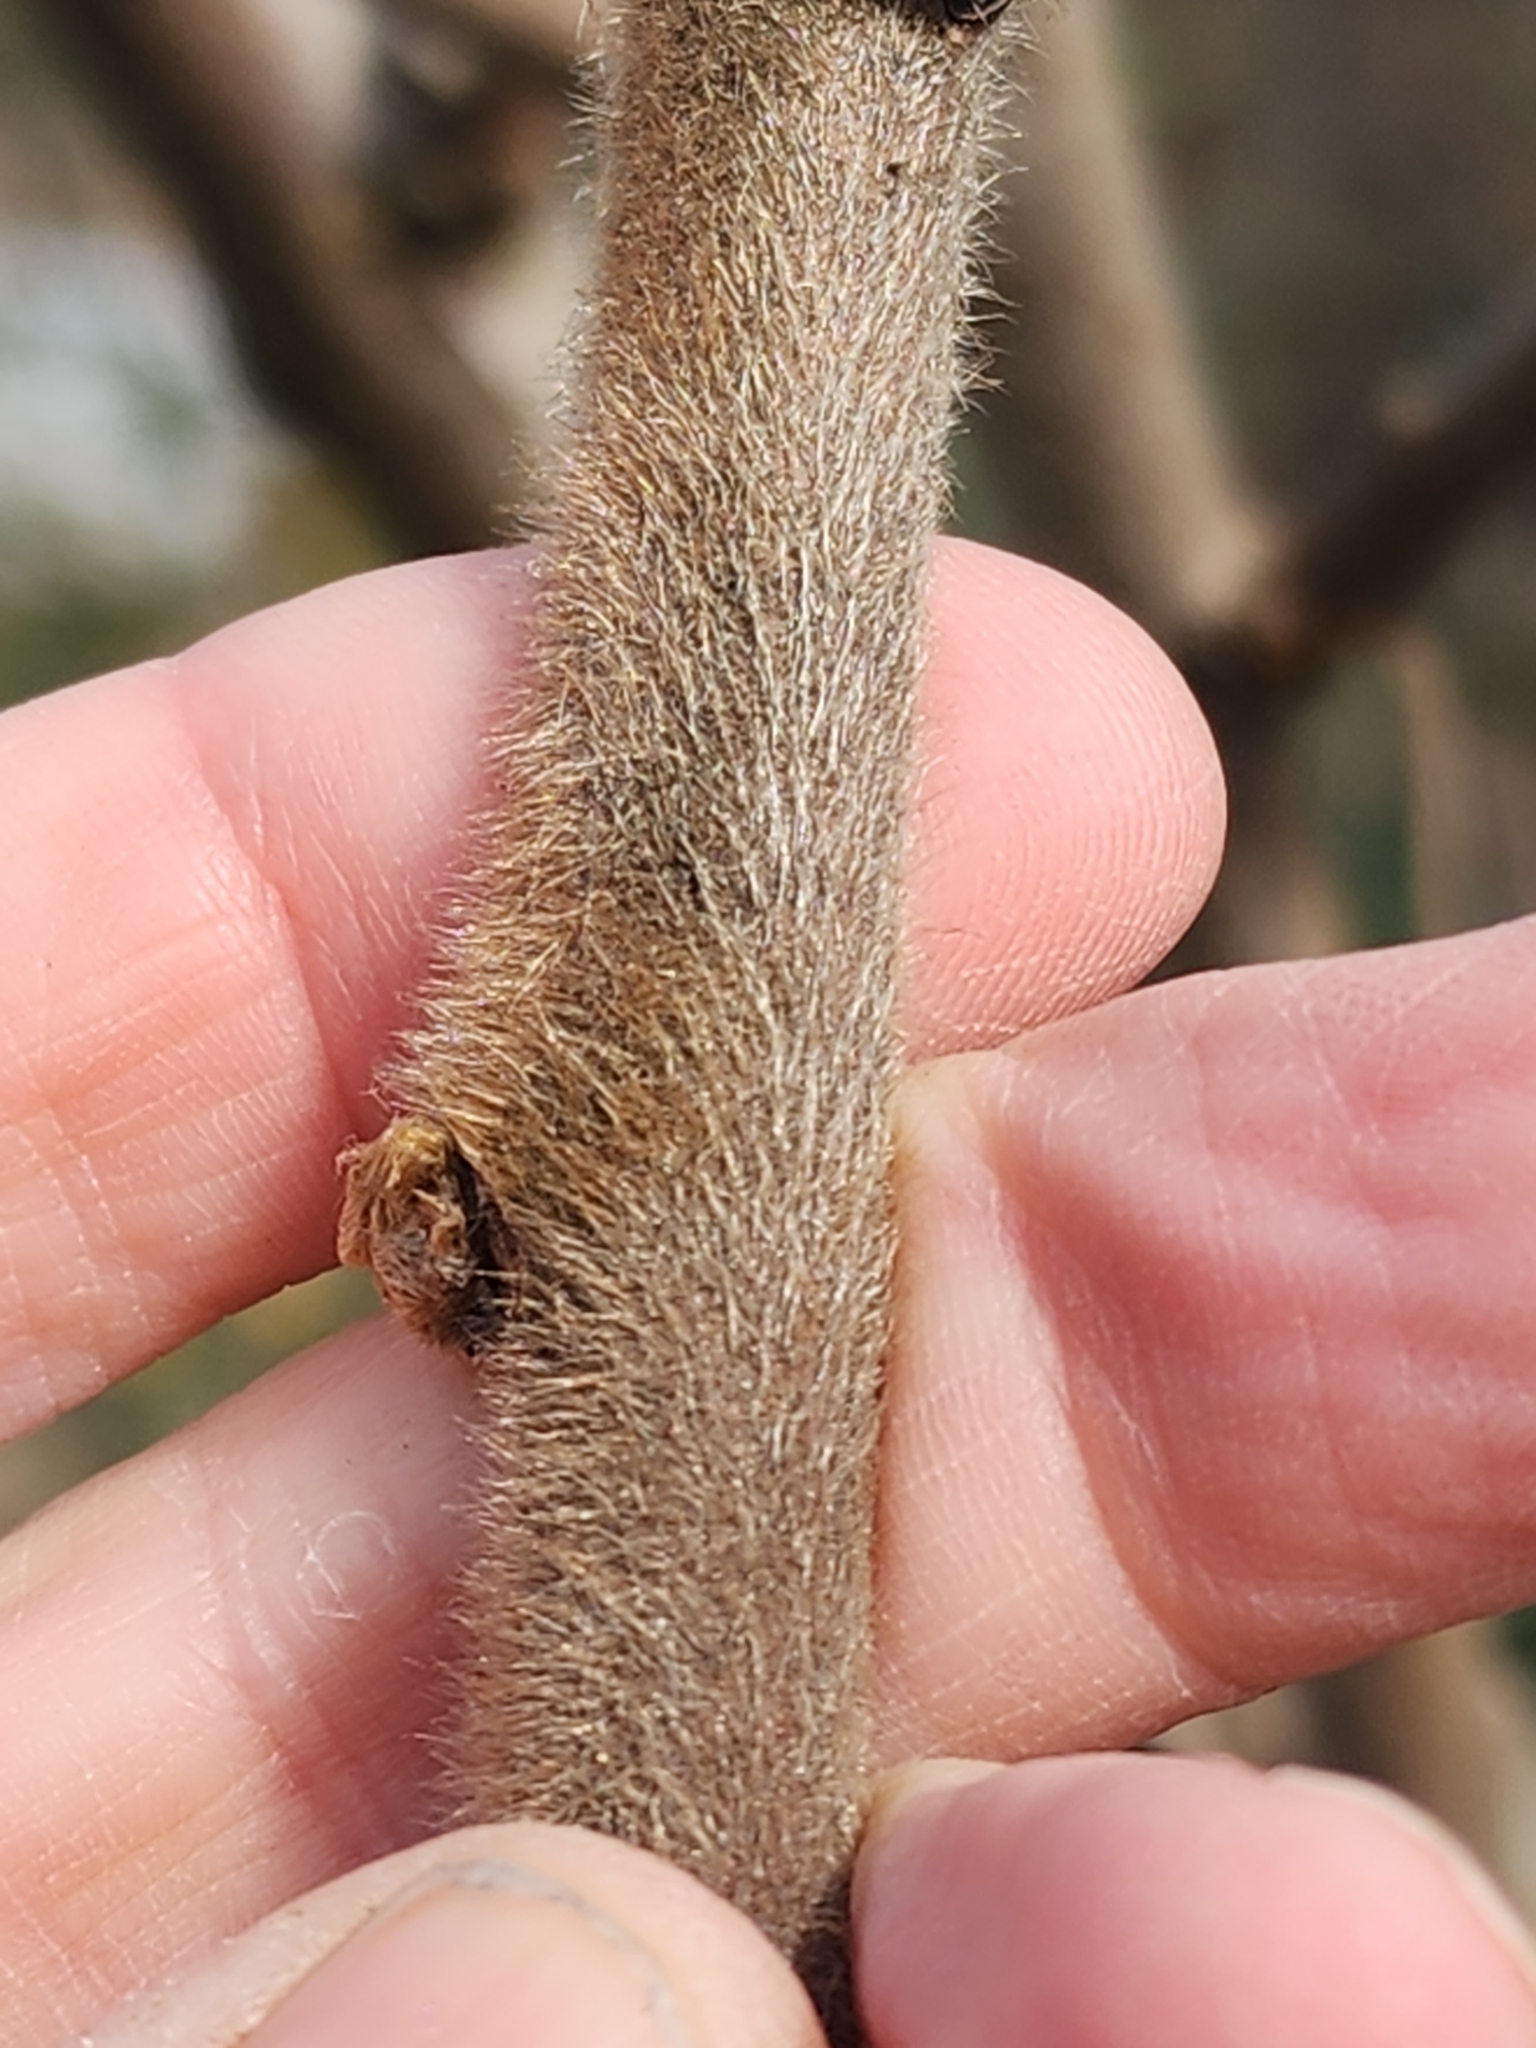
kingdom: Plantae
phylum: Tracheophyta
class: Magnoliopsida
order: Sapindales
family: Anacardiaceae
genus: Rhus
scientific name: Rhus typhina
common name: Staghorn sumac
